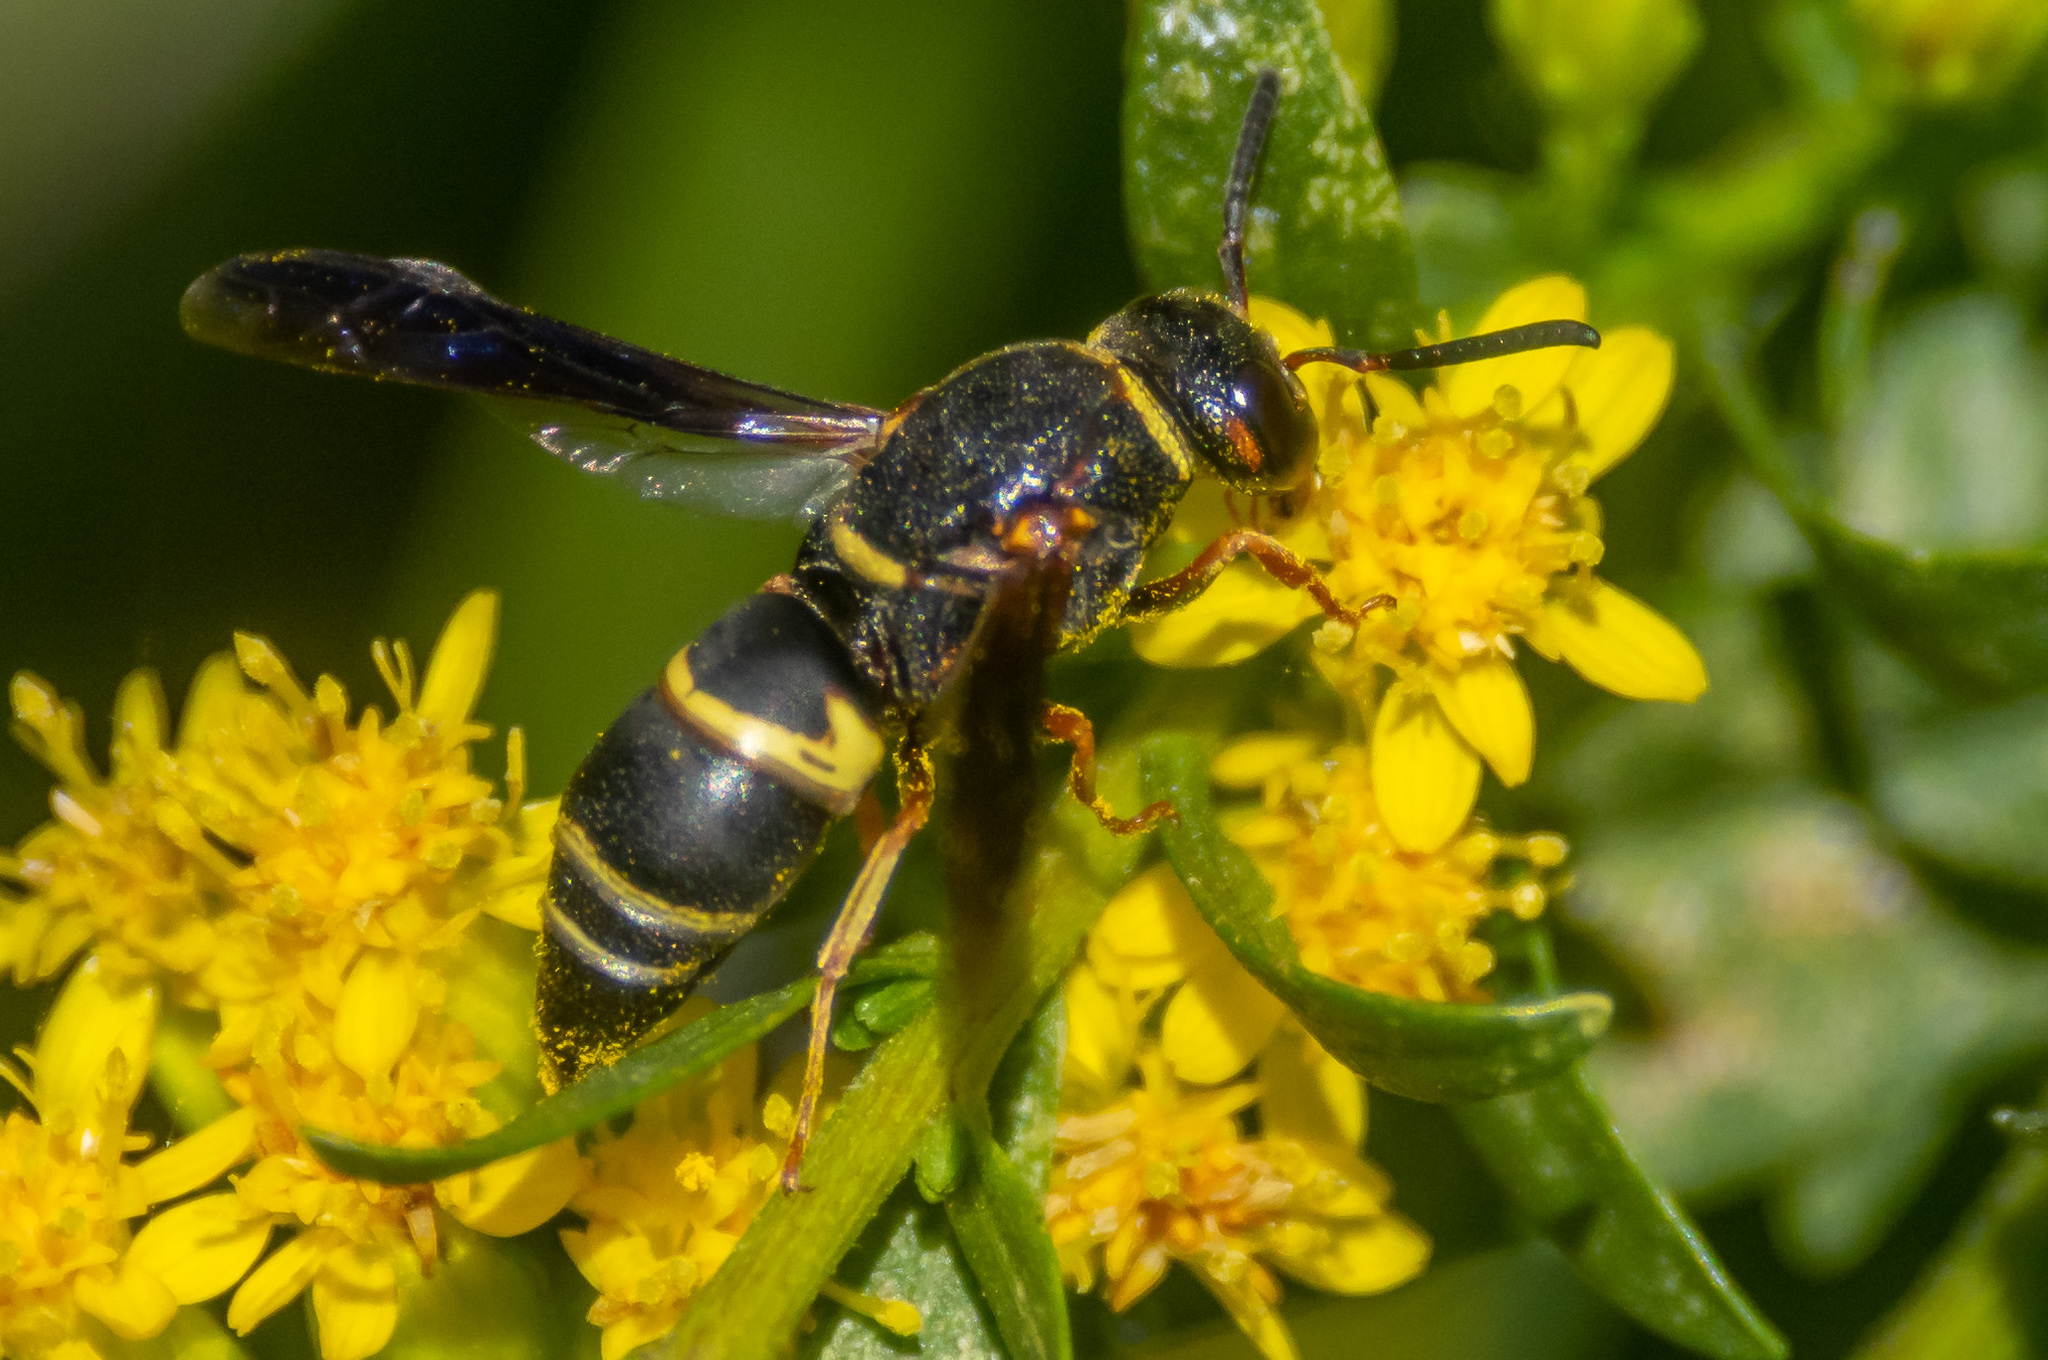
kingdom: Animalia
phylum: Arthropoda
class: Insecta
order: Hymenoptera
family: Eumenidae
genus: Euodynerus
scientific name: Euodynerus hidalgo
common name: Wasp
